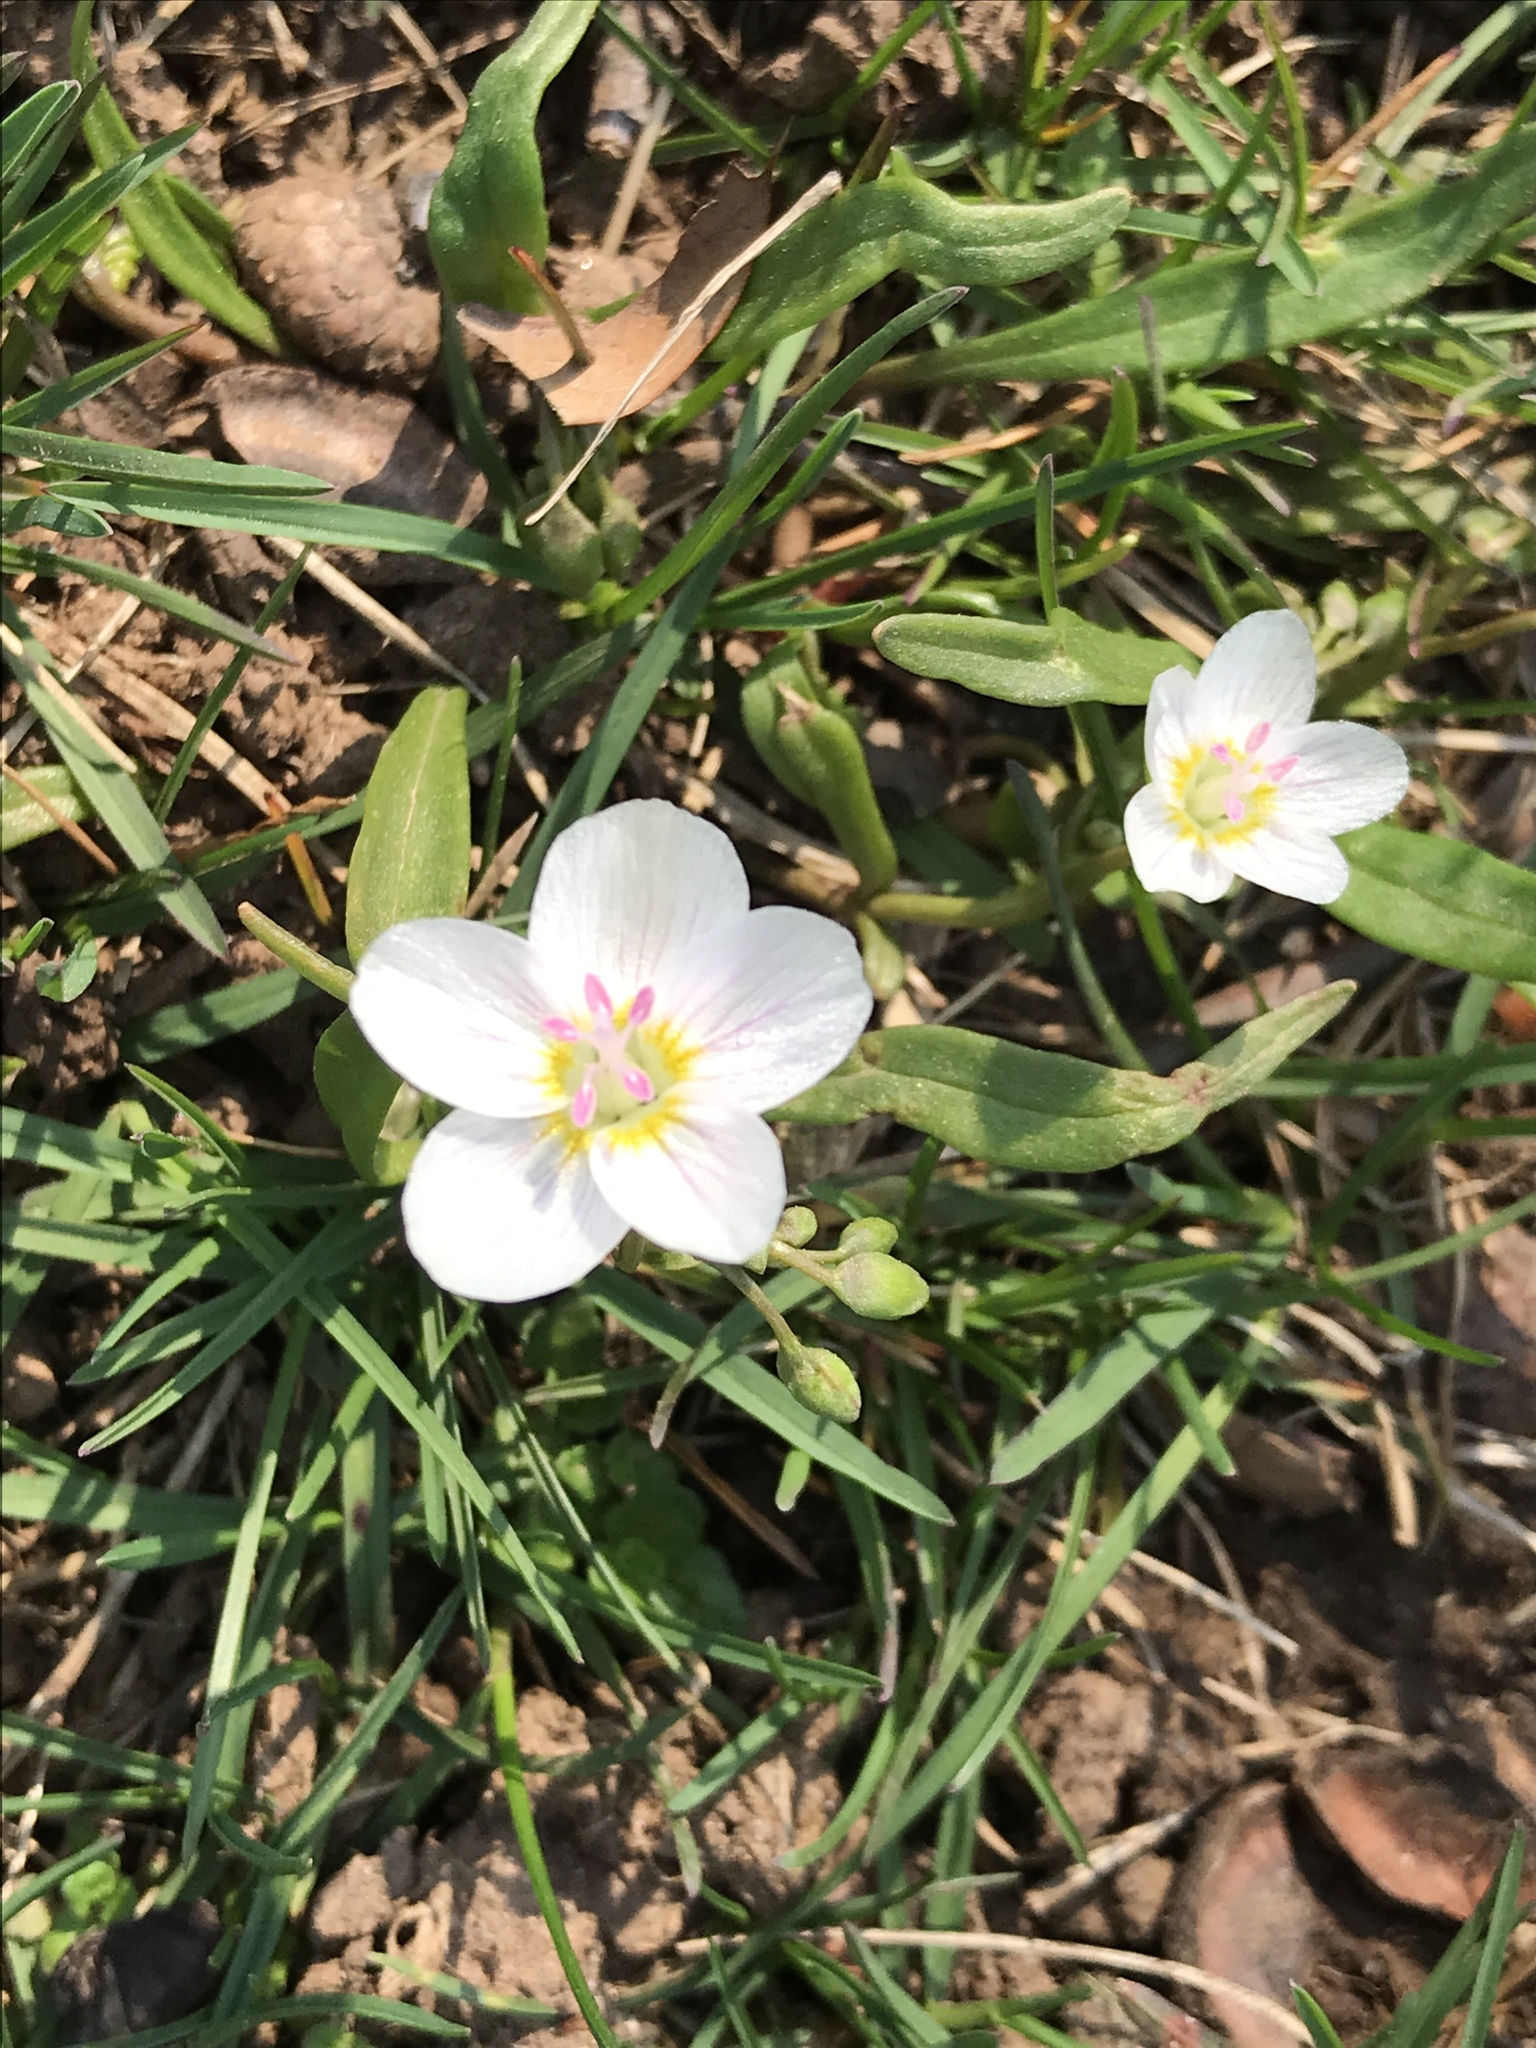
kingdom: Plantae
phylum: Tracheophyta
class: Magnoliopsida
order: Caryophyllales
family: Montiaceae
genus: Claytonia
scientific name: Claytonia virginica
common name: Virginia springbeauty
